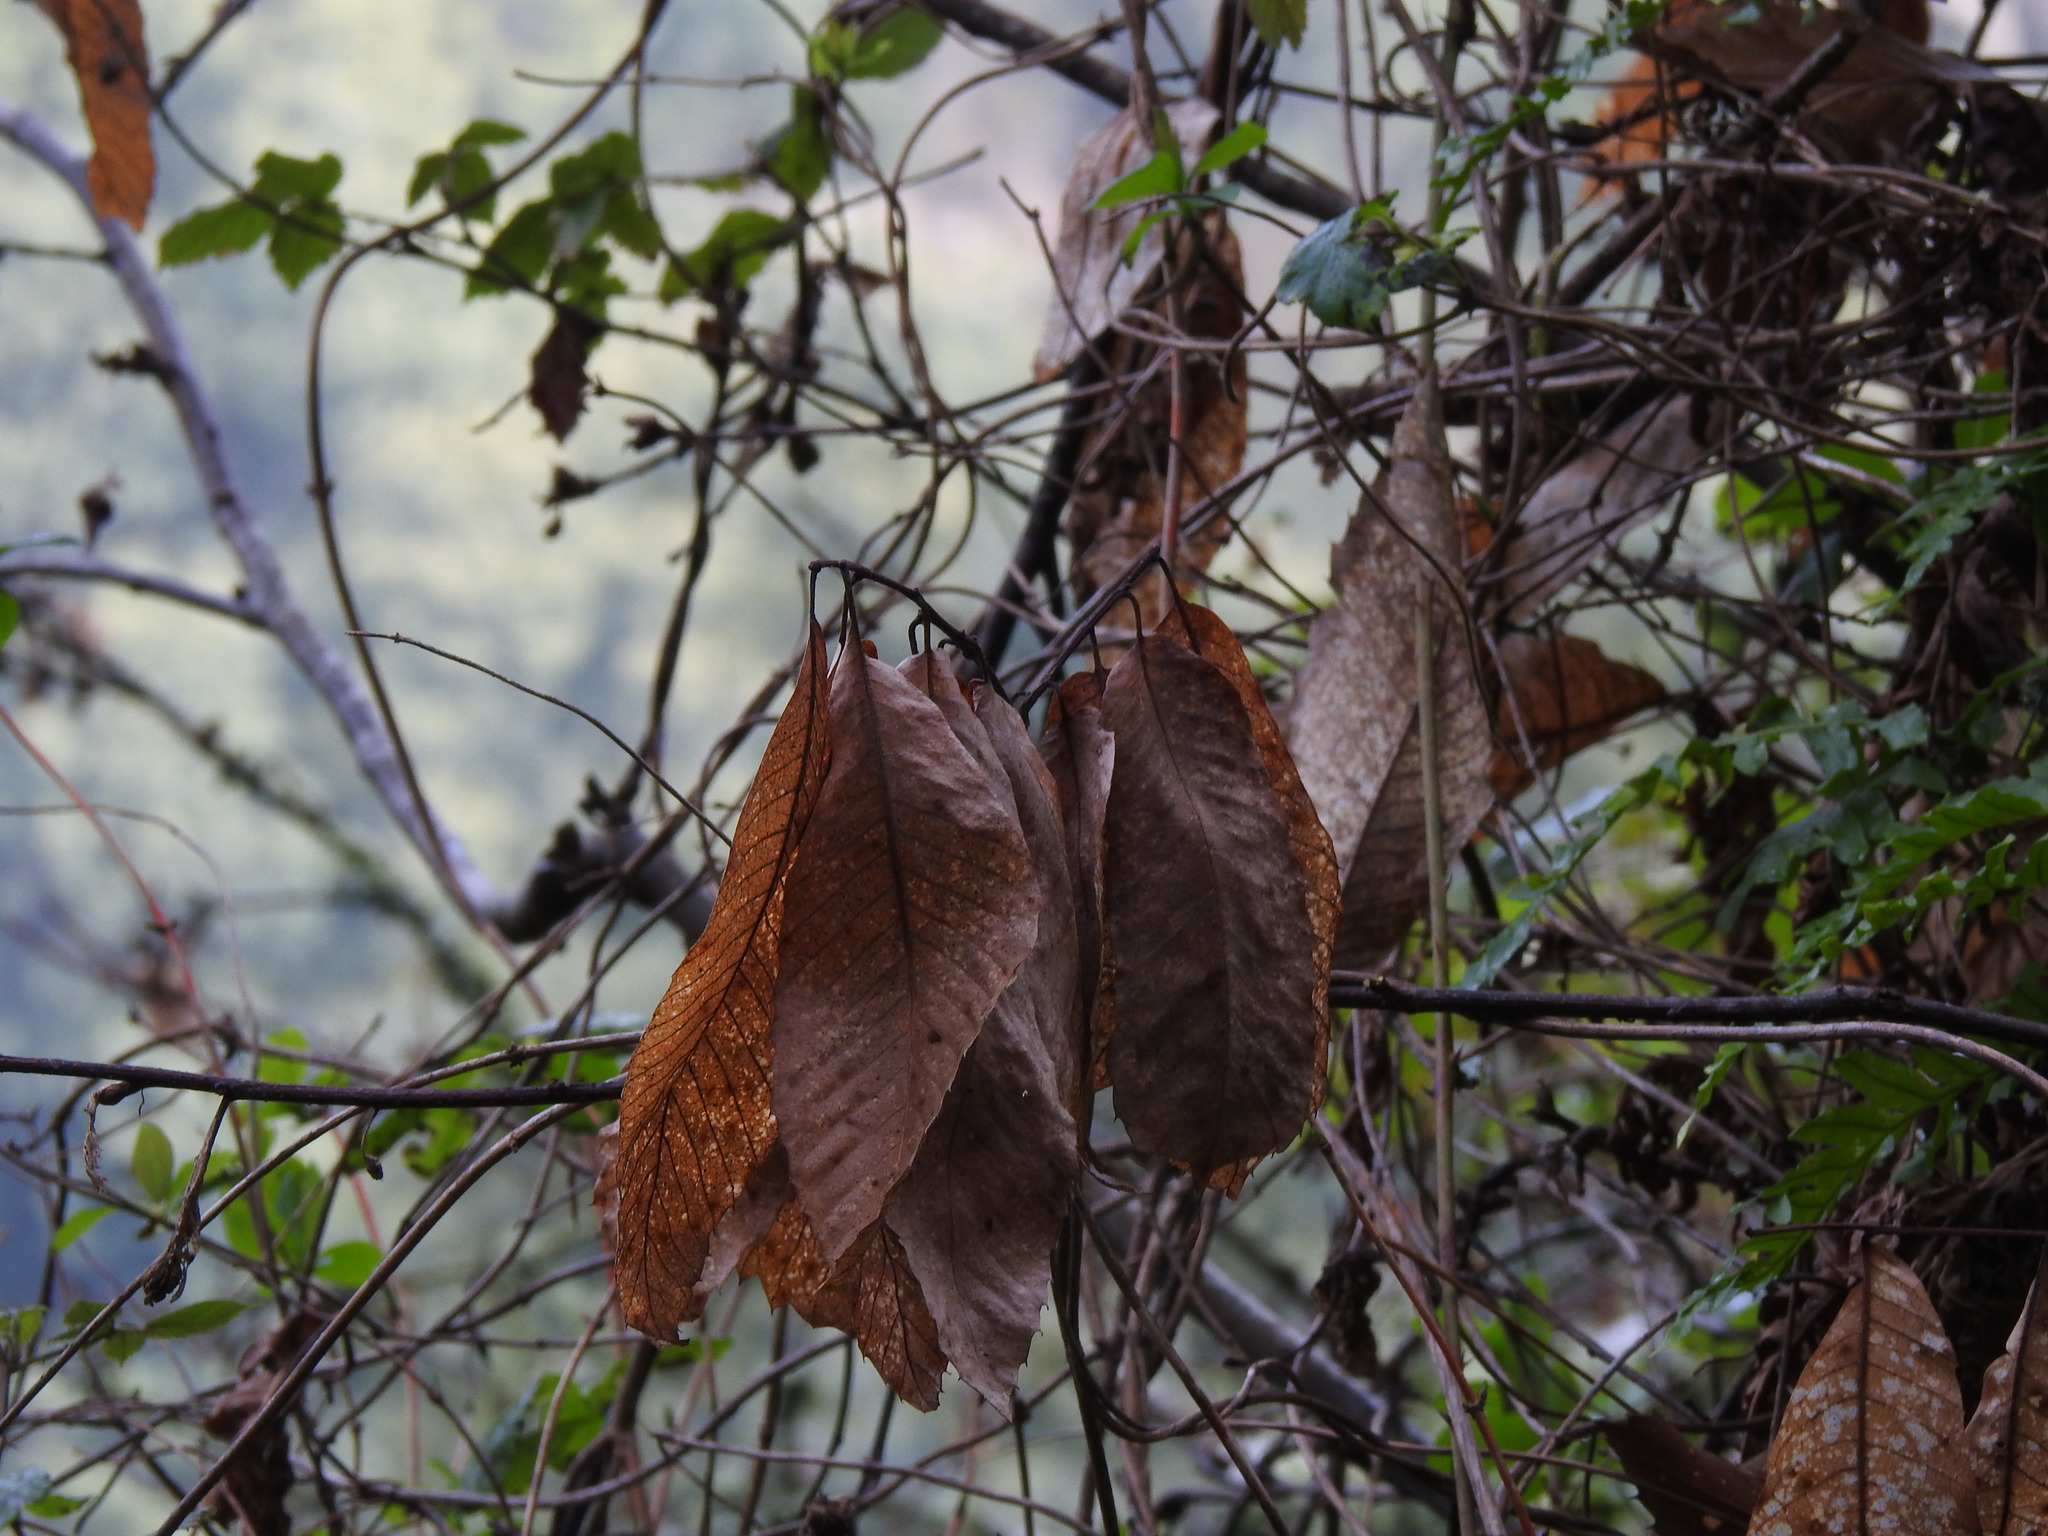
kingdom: Plantae
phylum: Tracheophyta
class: Magnoliopsida
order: Fagales
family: Fagaceae
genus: Castanea
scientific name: Castanea sativa
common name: Sweet chestnut
